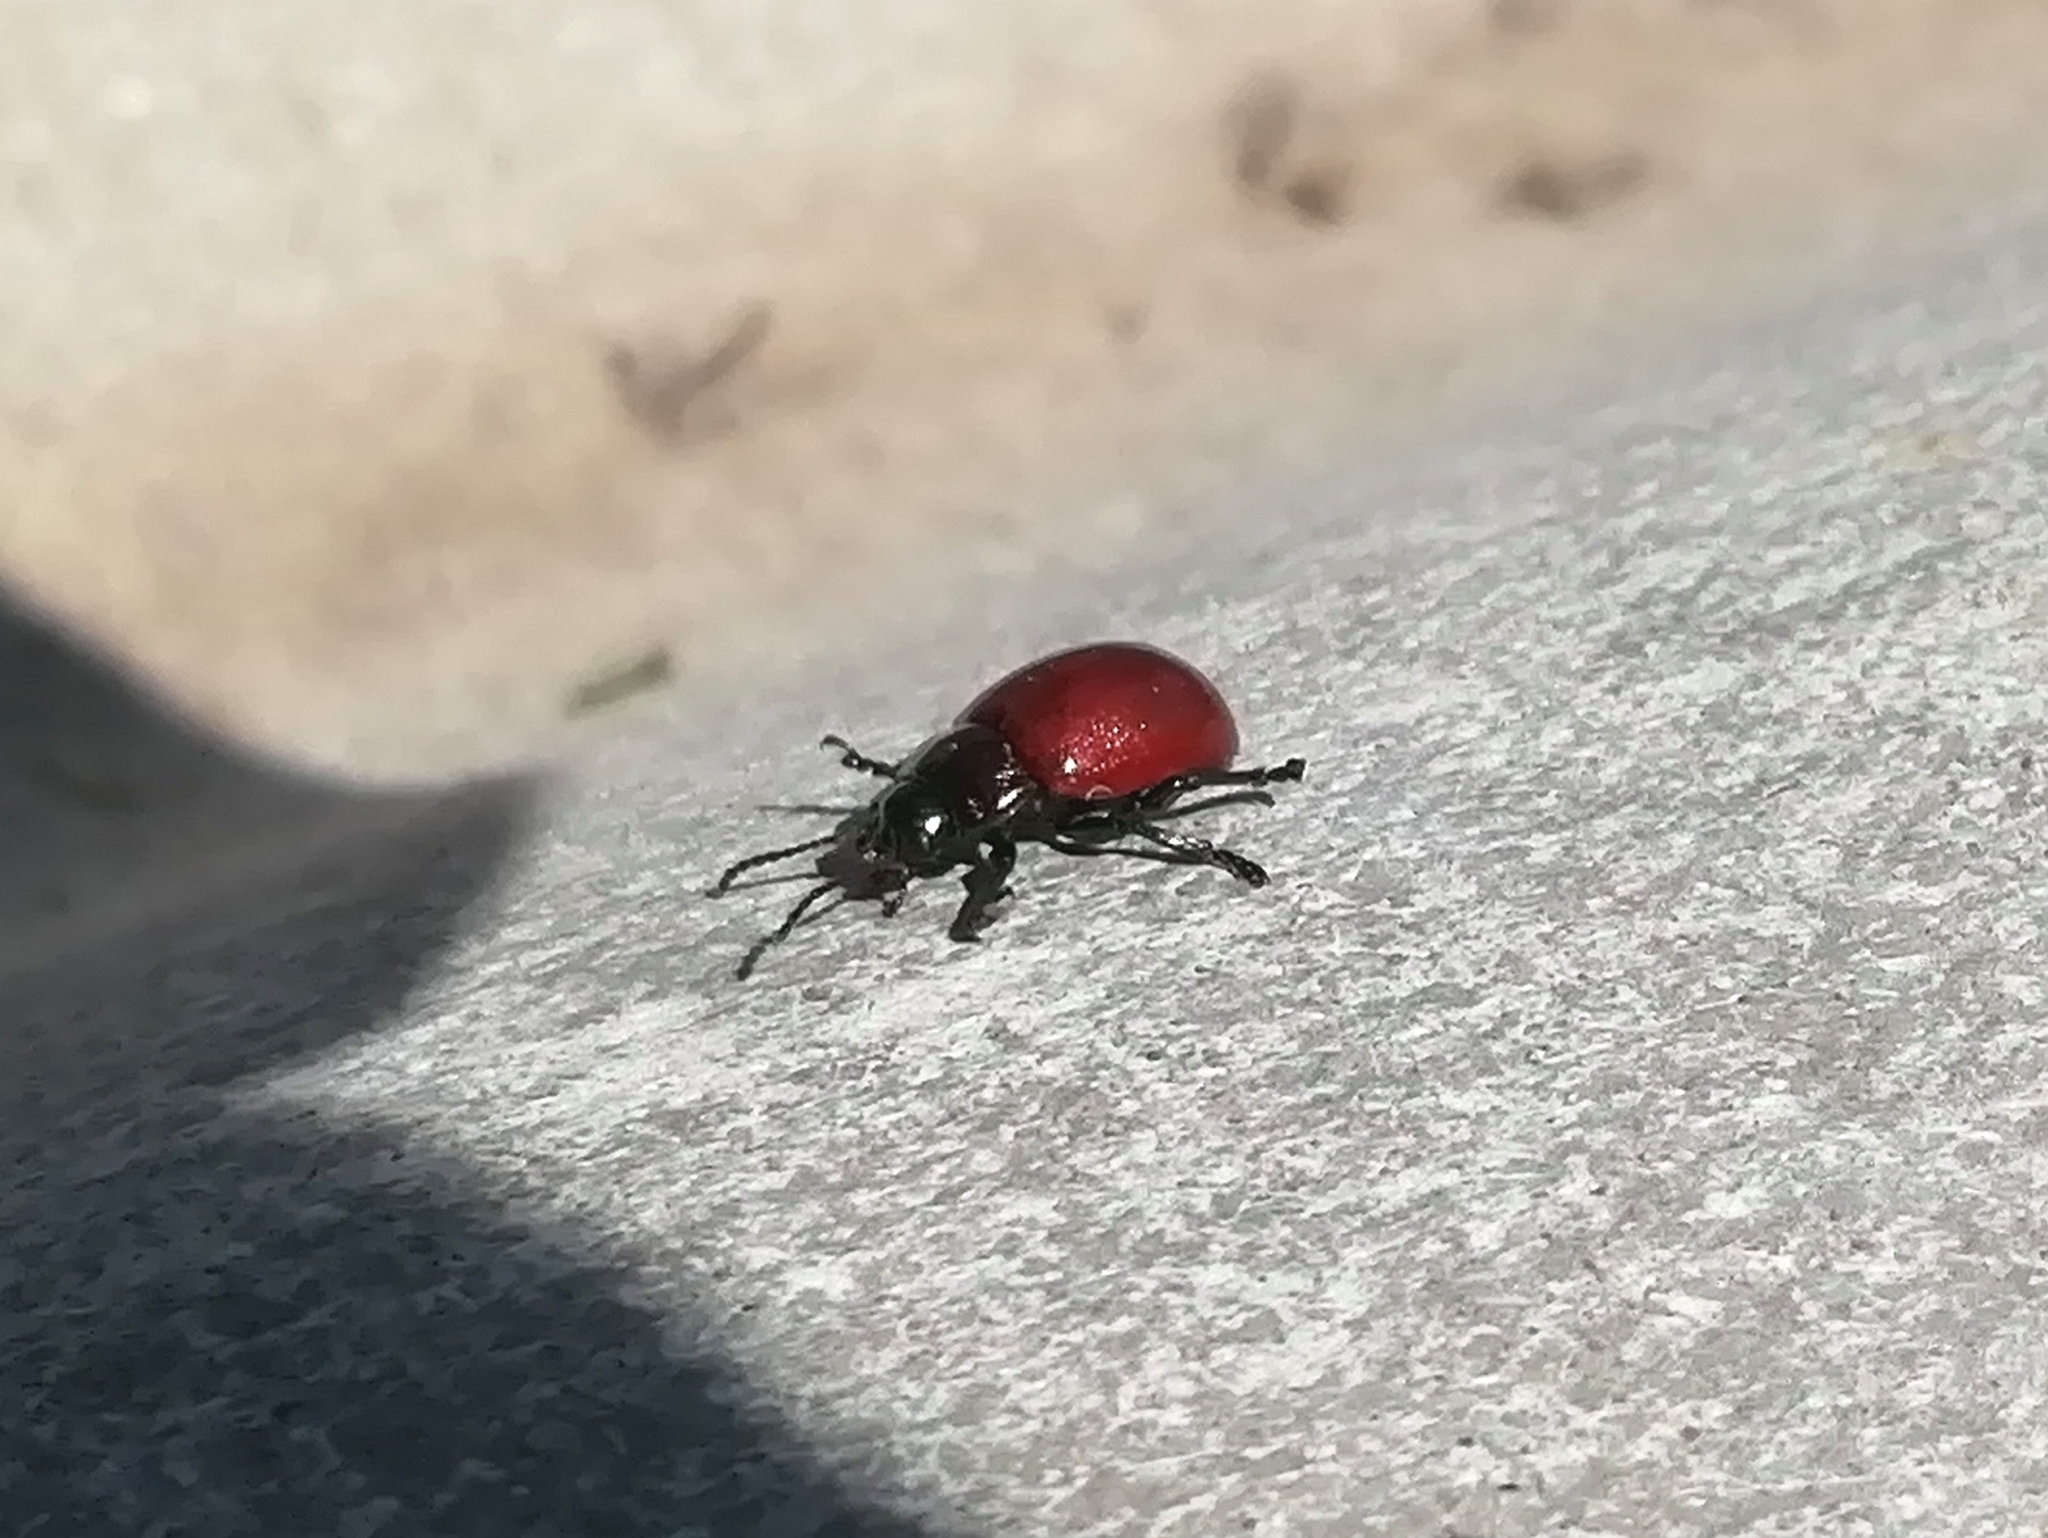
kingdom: Animalia
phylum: Arthropoda
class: Insecta
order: Coleoptera
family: Chrysomelidae
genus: Chrysomela
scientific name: Chrysomela polita
